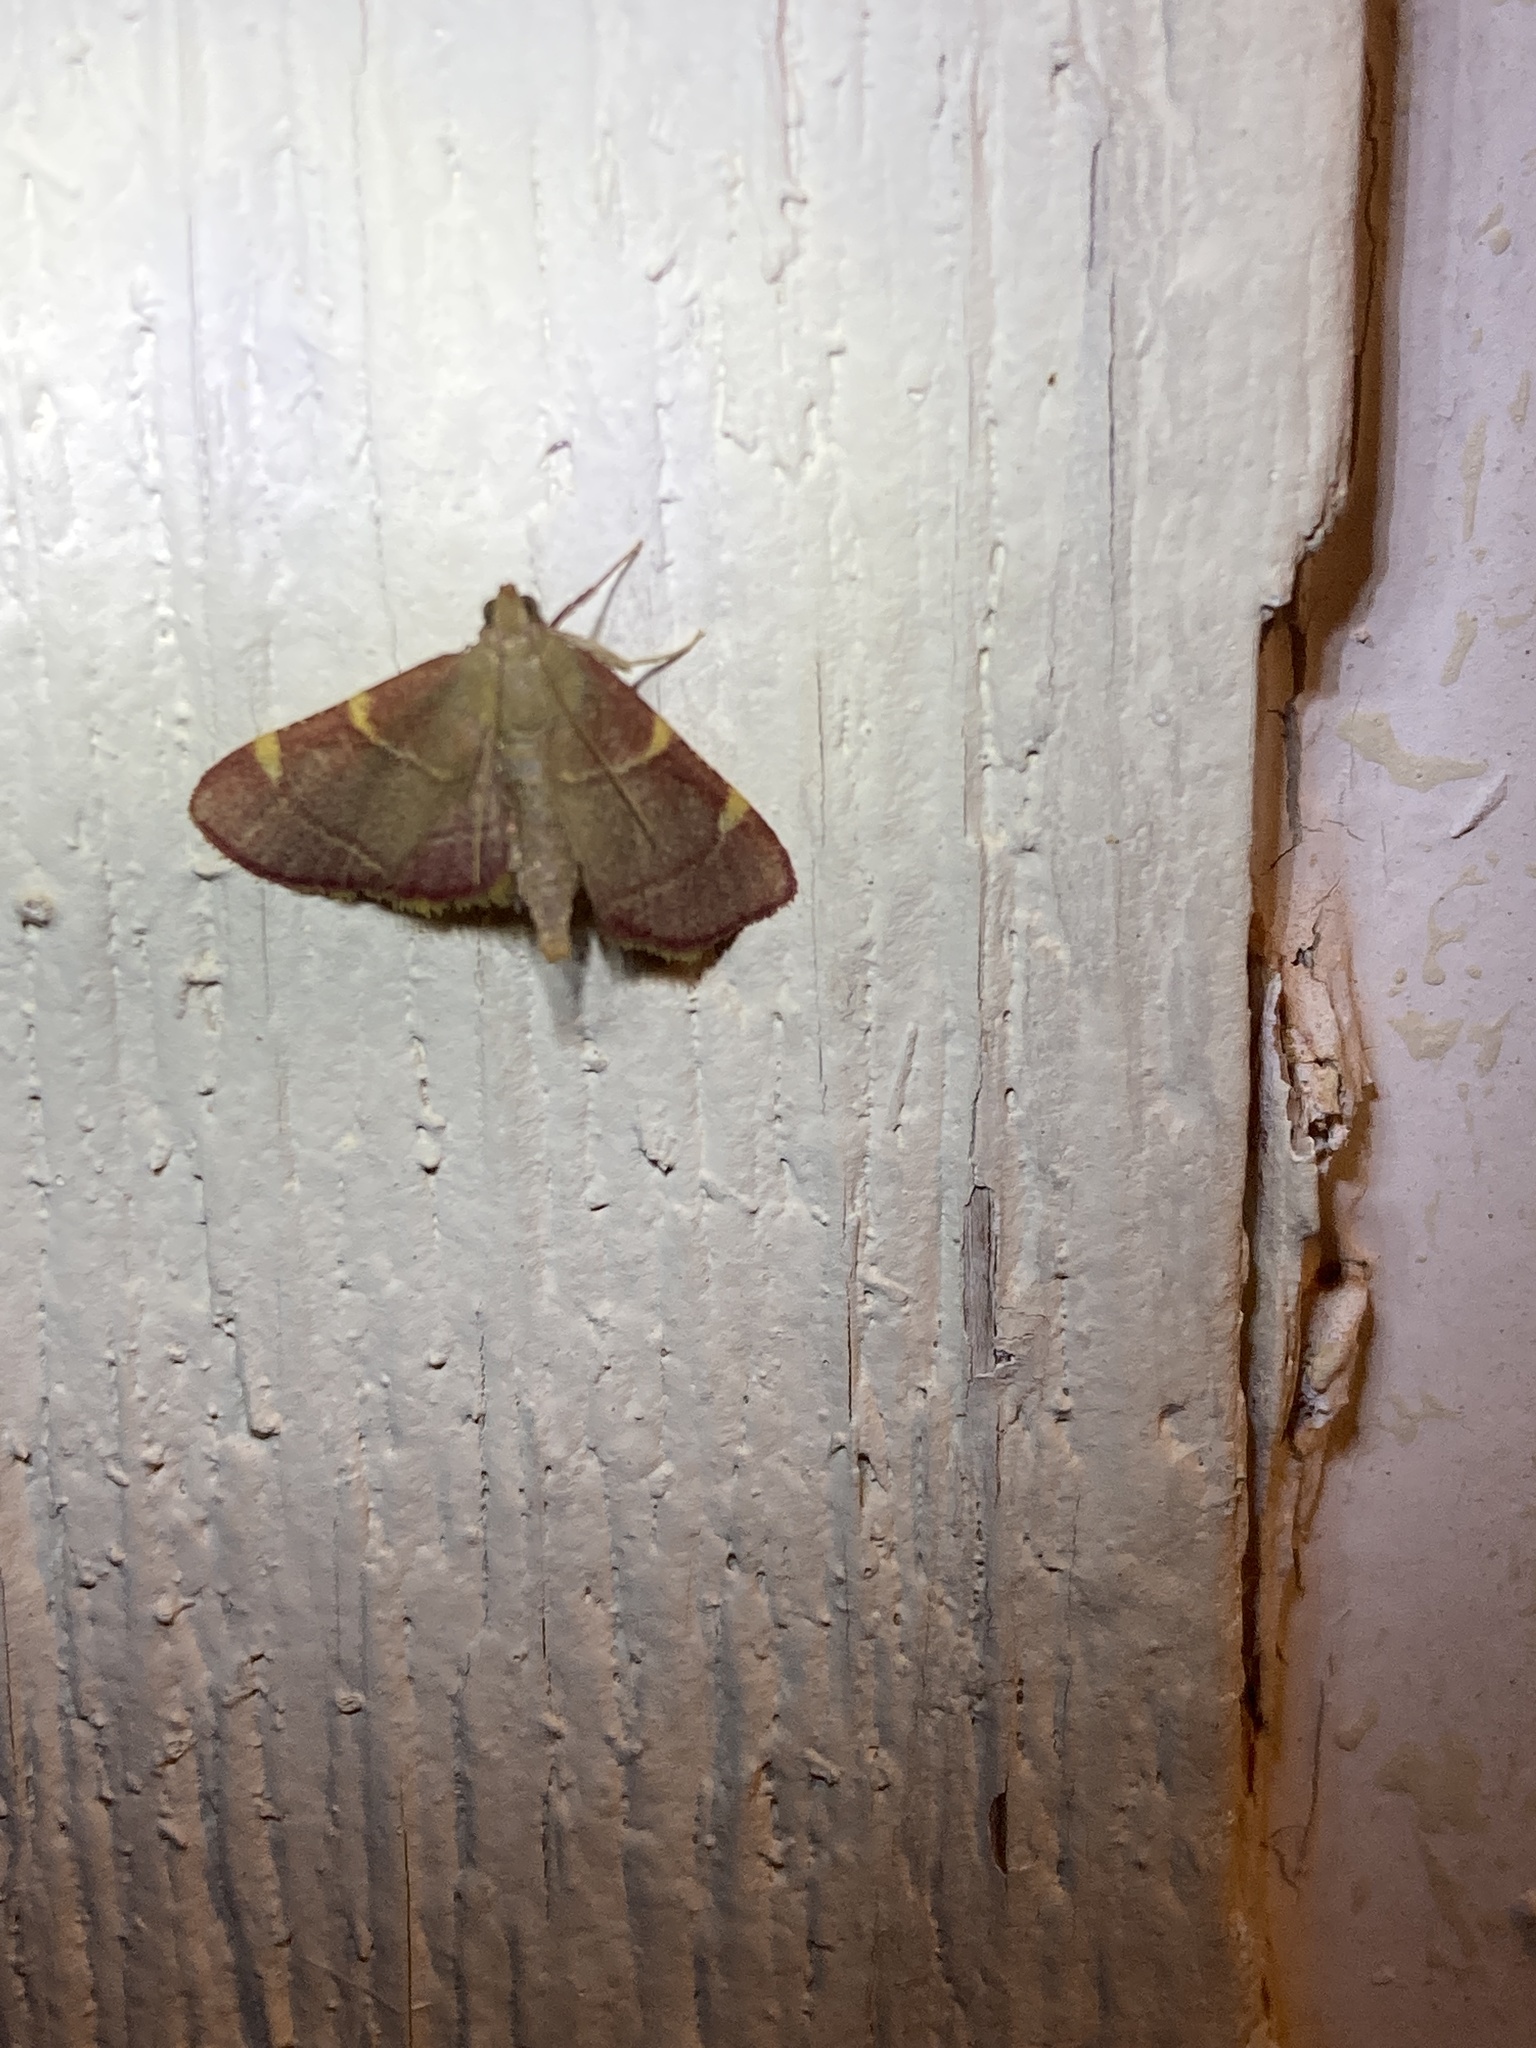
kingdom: Animalia
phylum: Arthropoda
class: Insecta
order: Lepidoptera
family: Pyralidae
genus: Hypsopygia
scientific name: Hypsopygia olinalis
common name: Yellow-fringed dolichomia moth
